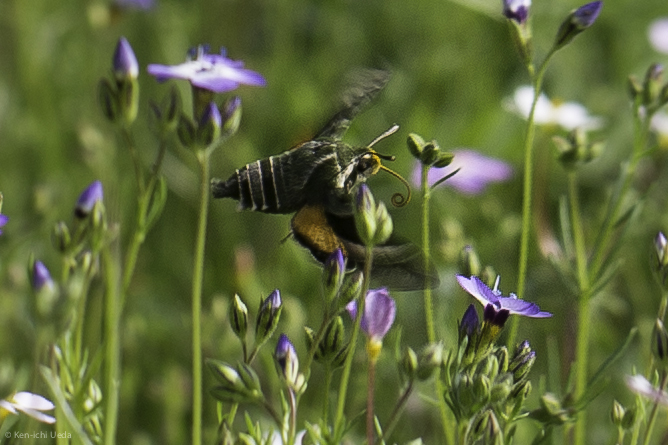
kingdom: Animalia
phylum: Arthropoda
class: Insecta
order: Lepidoptera
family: Sphingidae
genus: Proserpinus
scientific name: Proserpinus clarkiae
